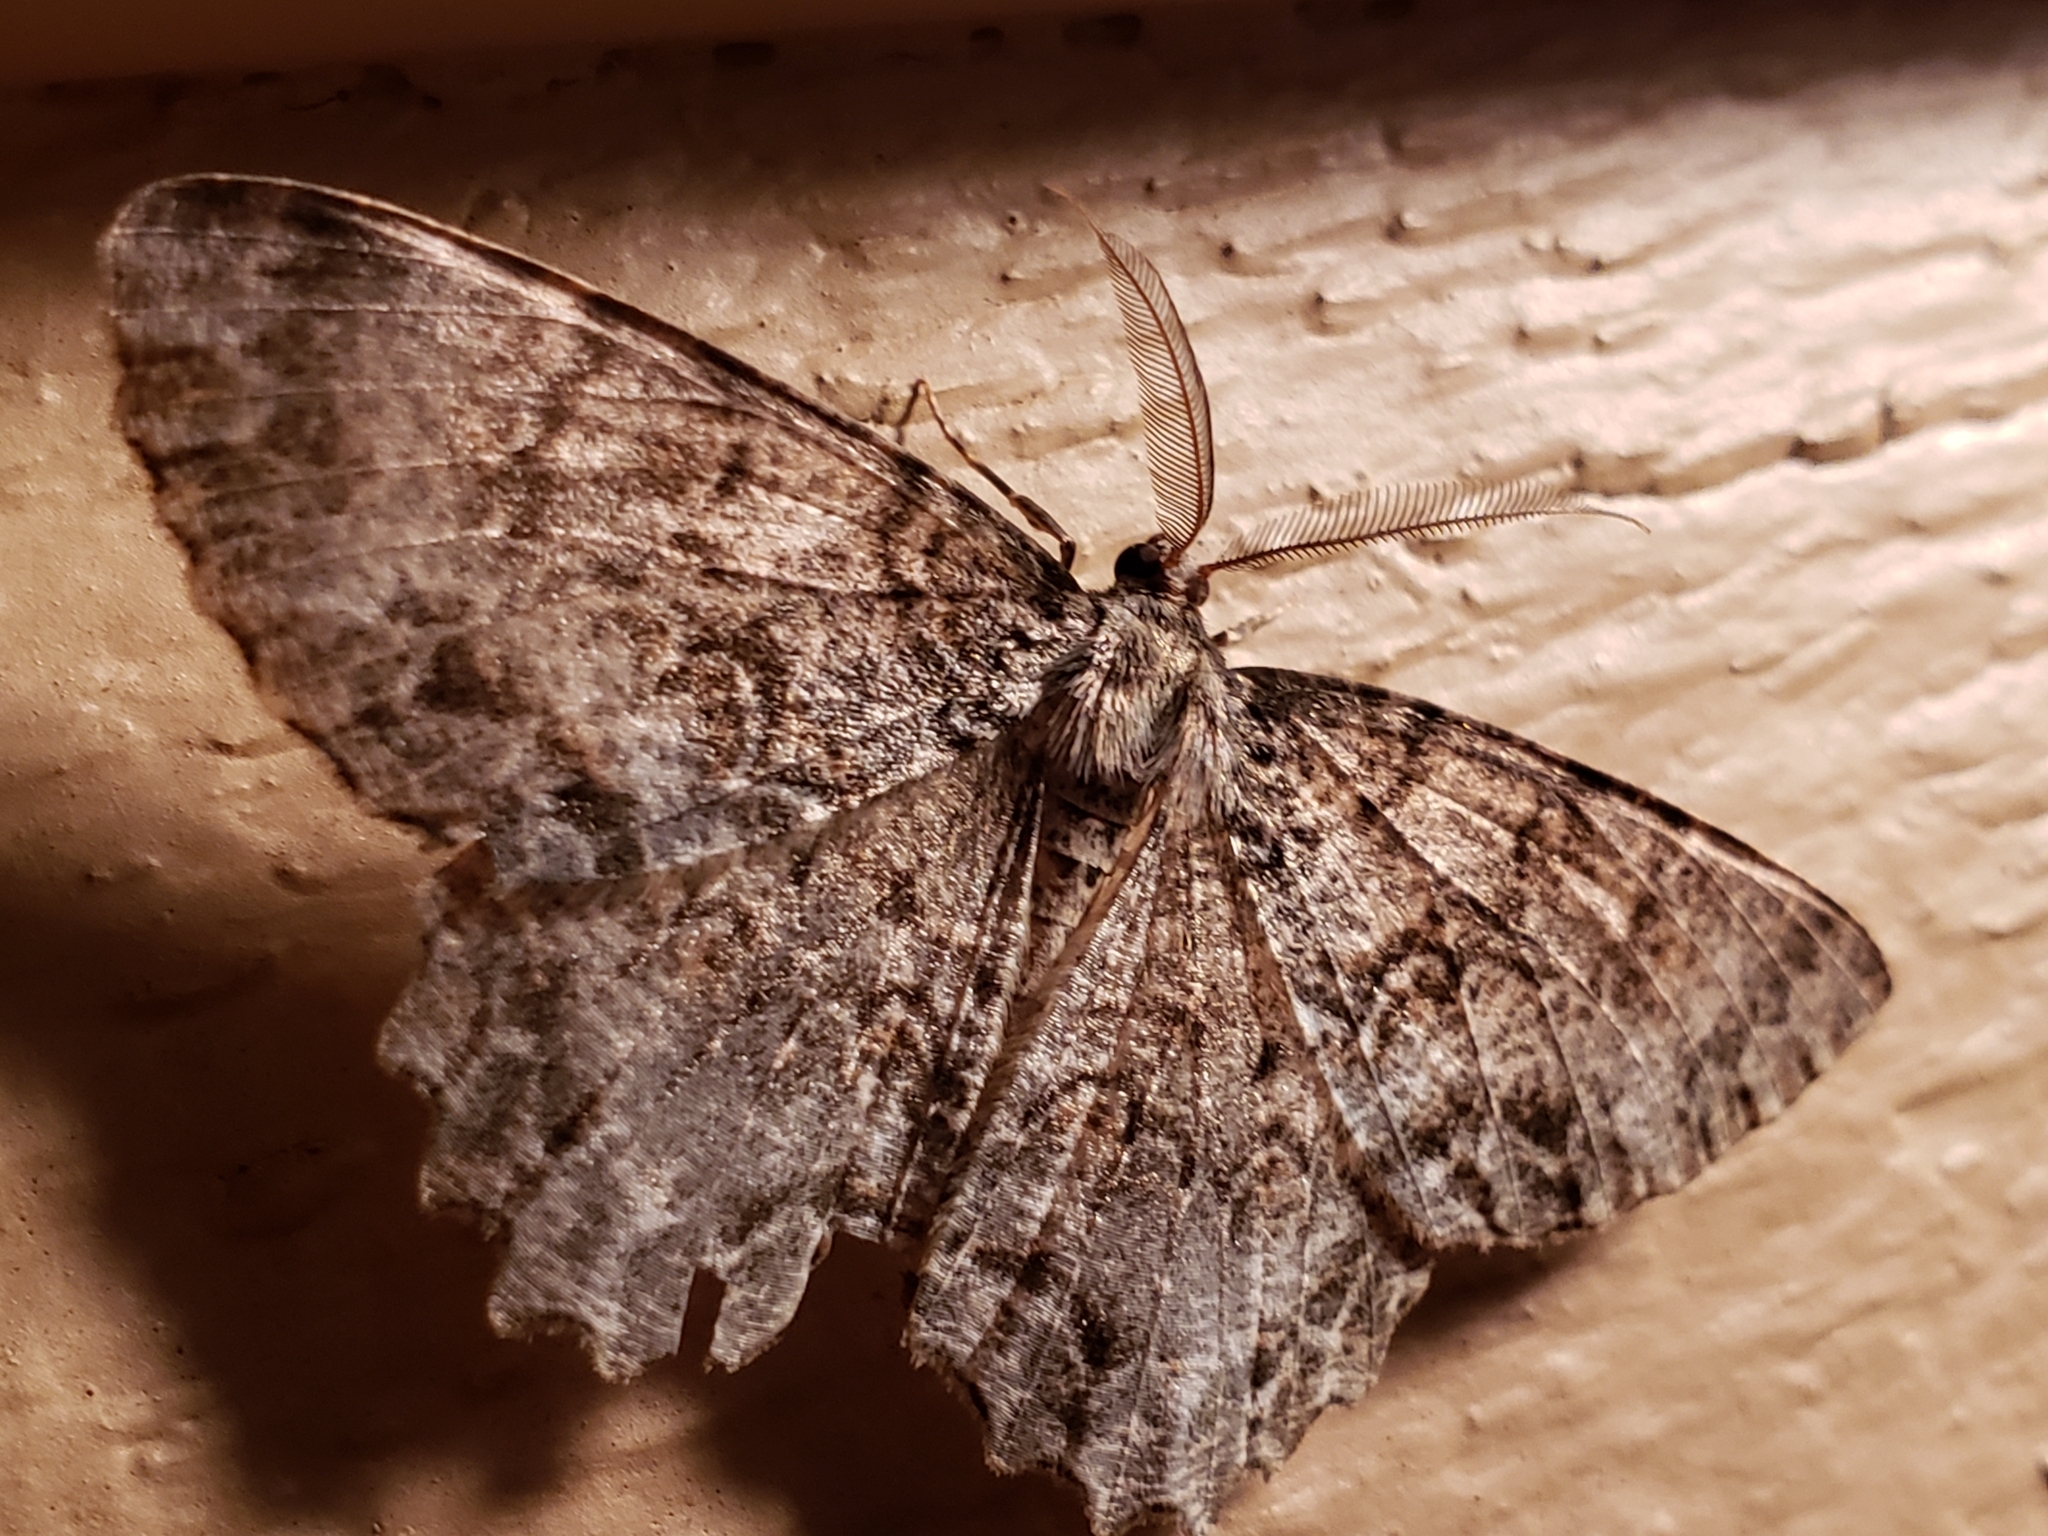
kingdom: Animalia
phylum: Arthropoda
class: Insecta
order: Lepidoptera
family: Geometridae
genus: Epimecis
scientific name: Epimecis hortaria
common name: Tulip-tree beauty
